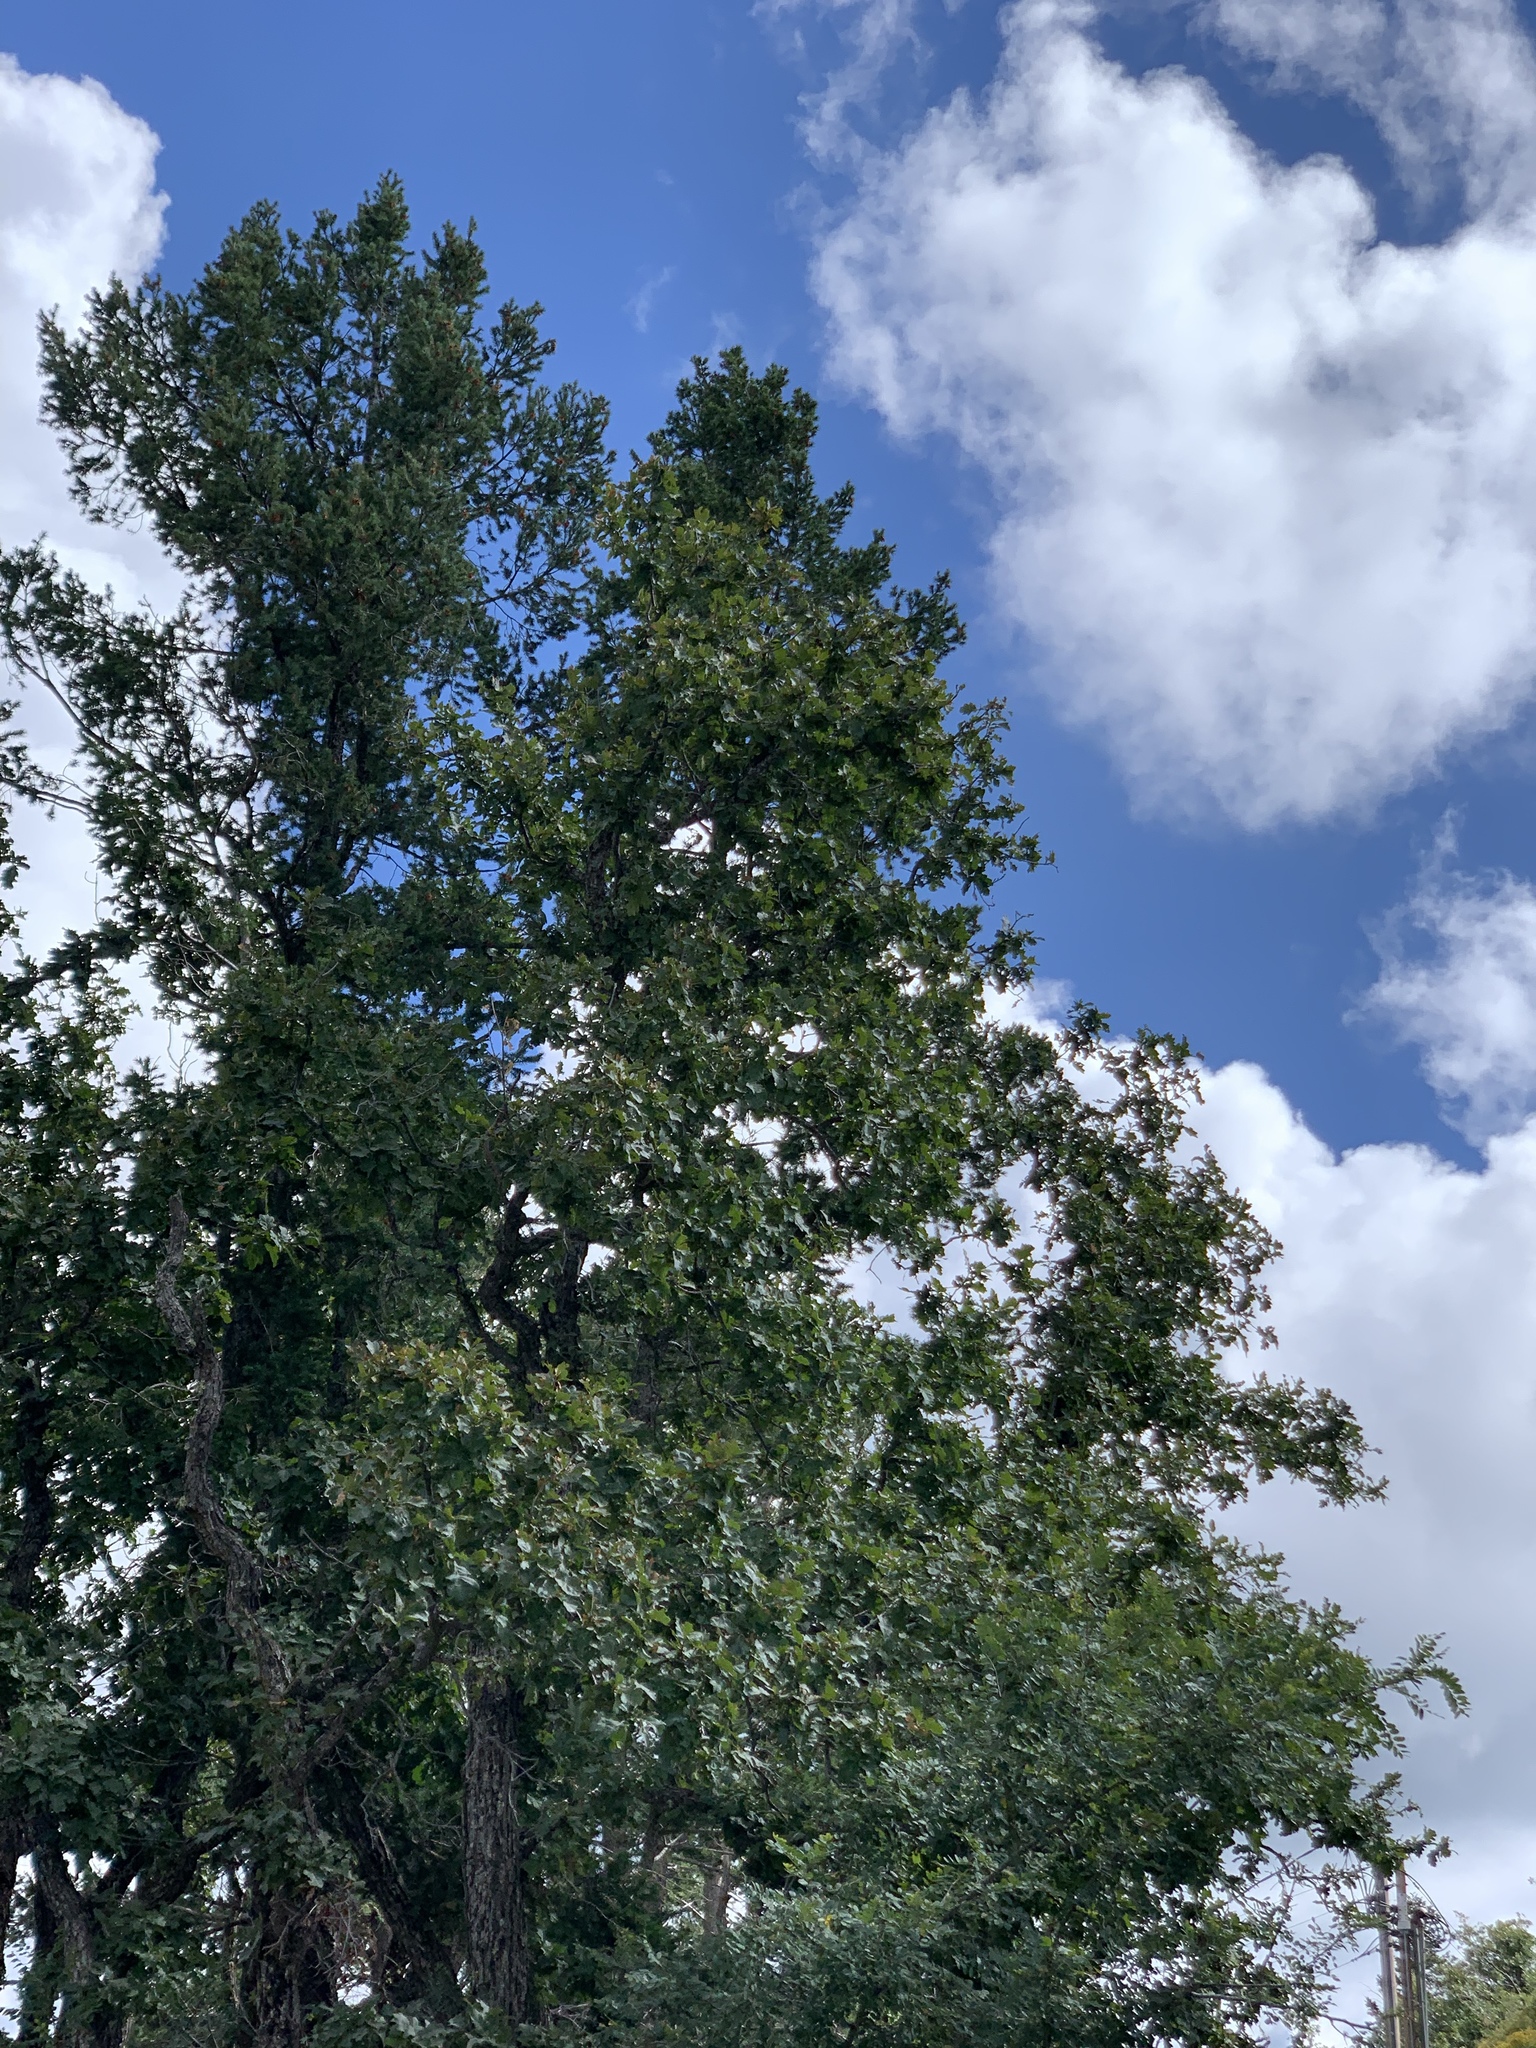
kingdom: Plantae
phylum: Tracheophyta
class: Magnoliopsida
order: Fagales
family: Fagaceae
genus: Quercus
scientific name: Quercus gambelii
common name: Gambel oak
